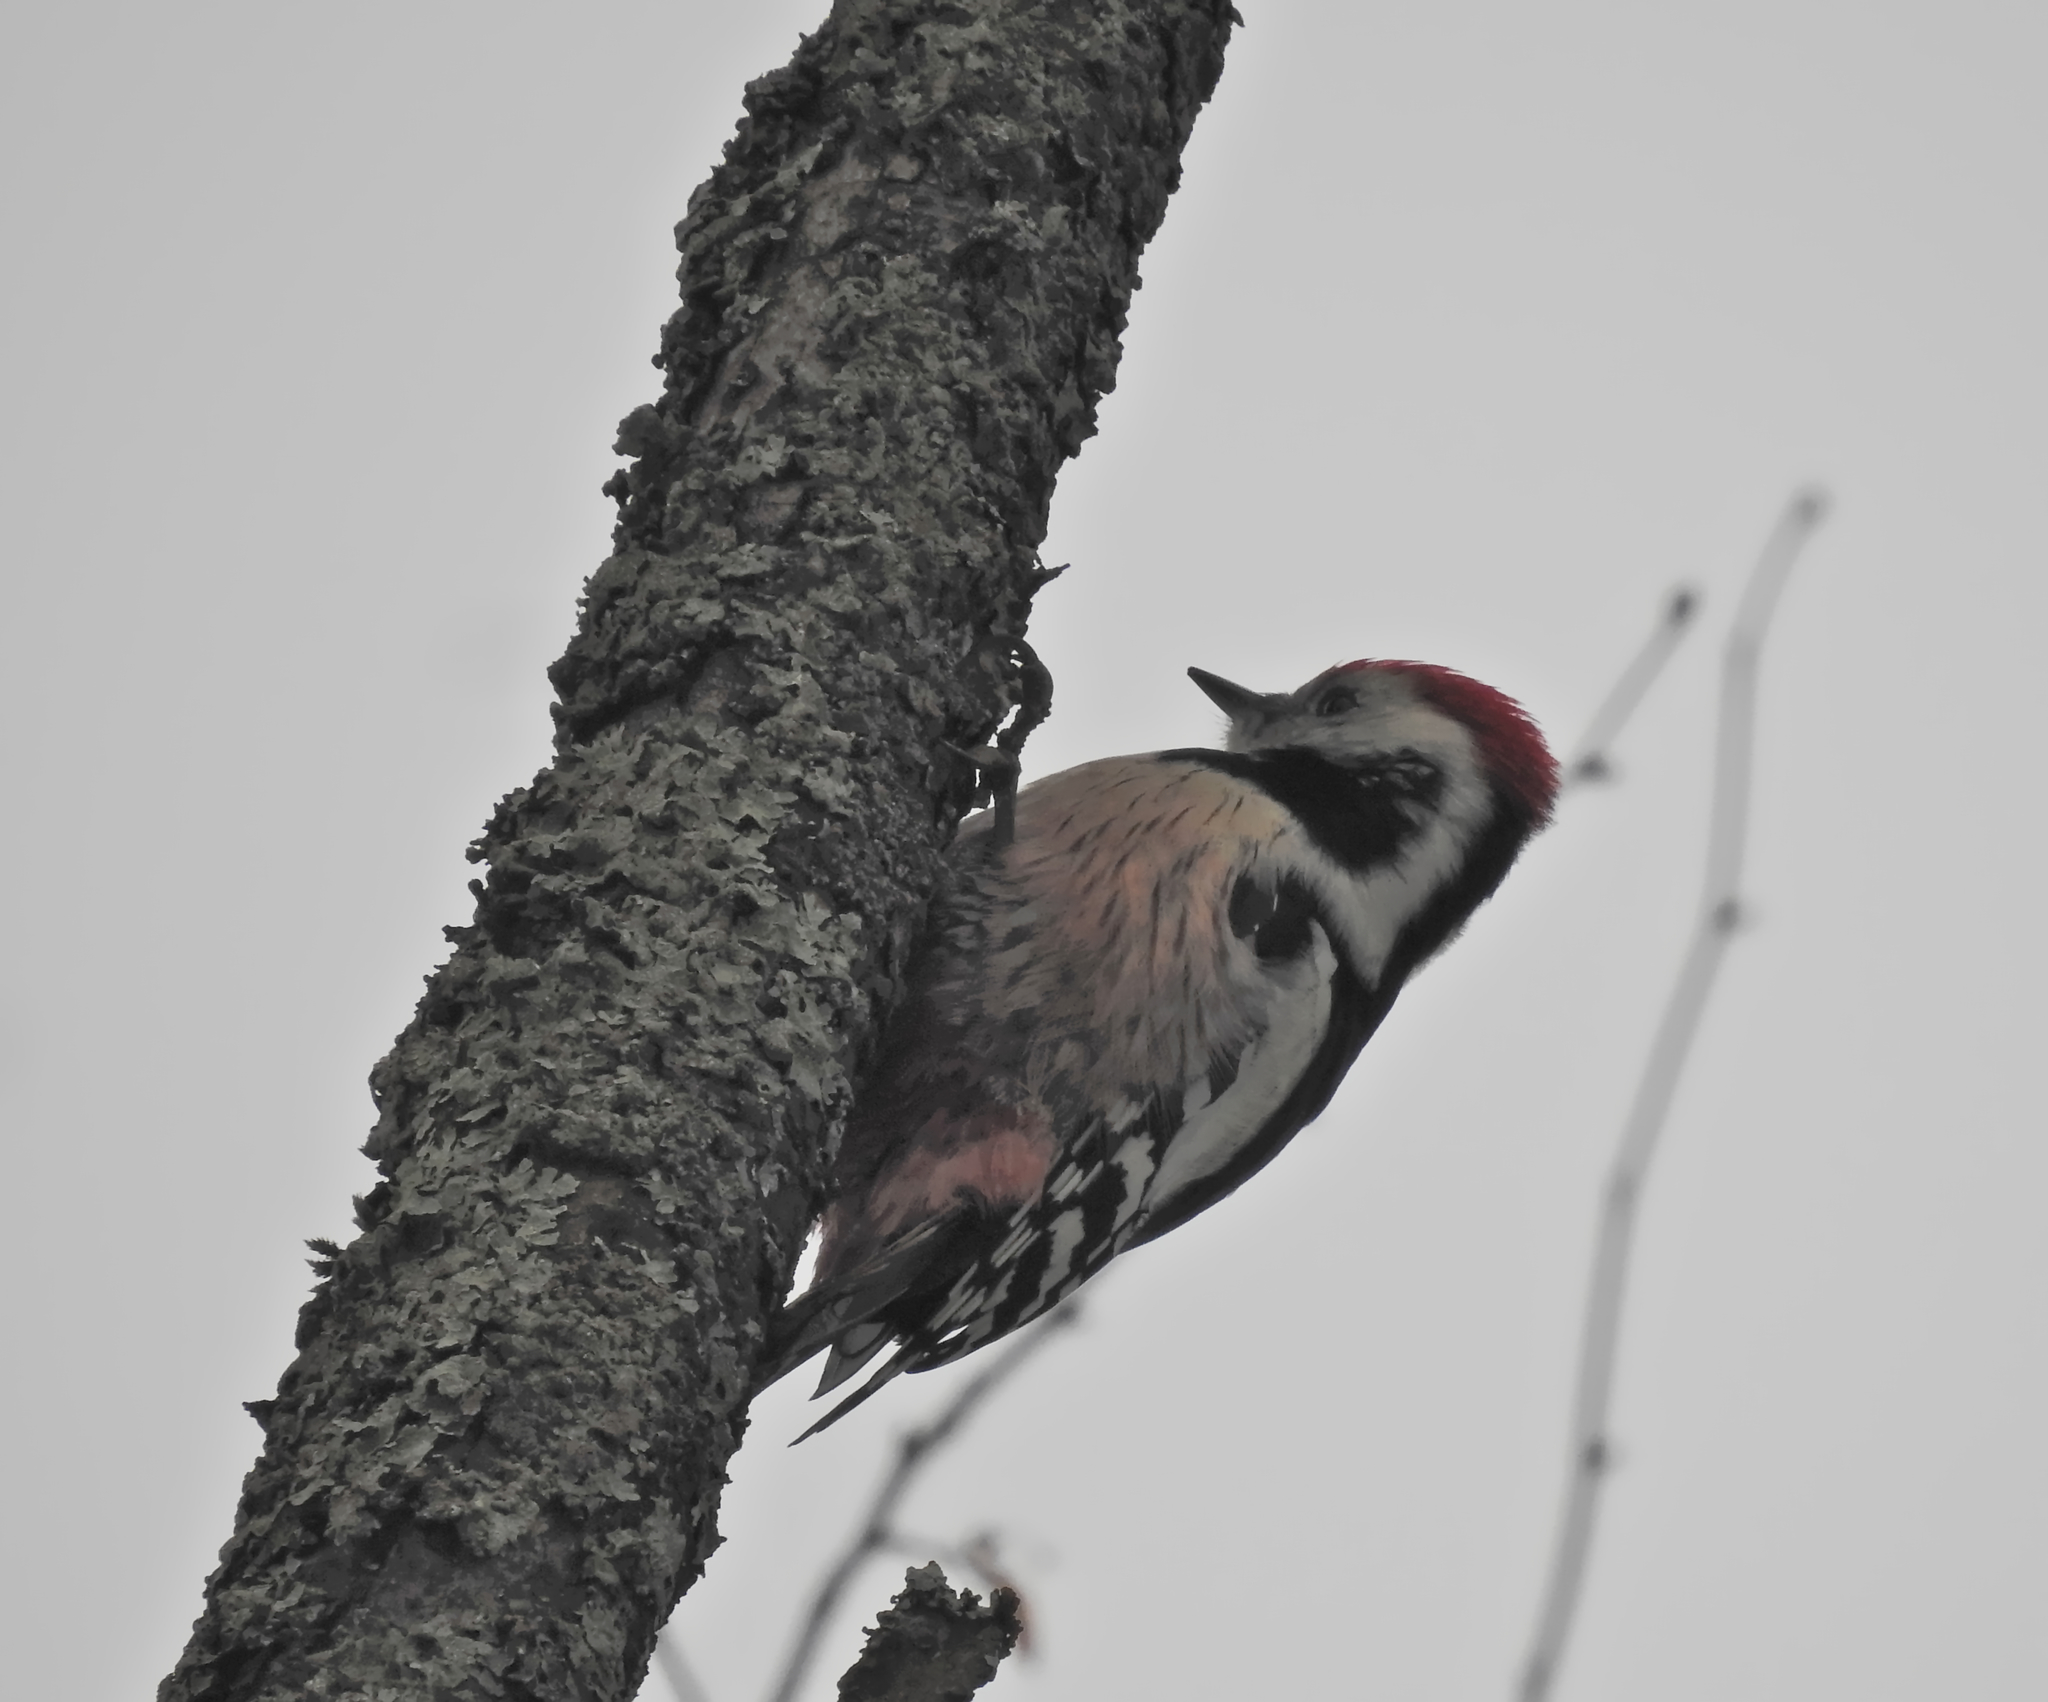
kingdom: Animalia
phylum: Chordata
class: Aves
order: Piciformes
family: Picidae
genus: Dendrocoptes
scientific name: Dendrocoptes medius
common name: Middle spotted woodpecker
